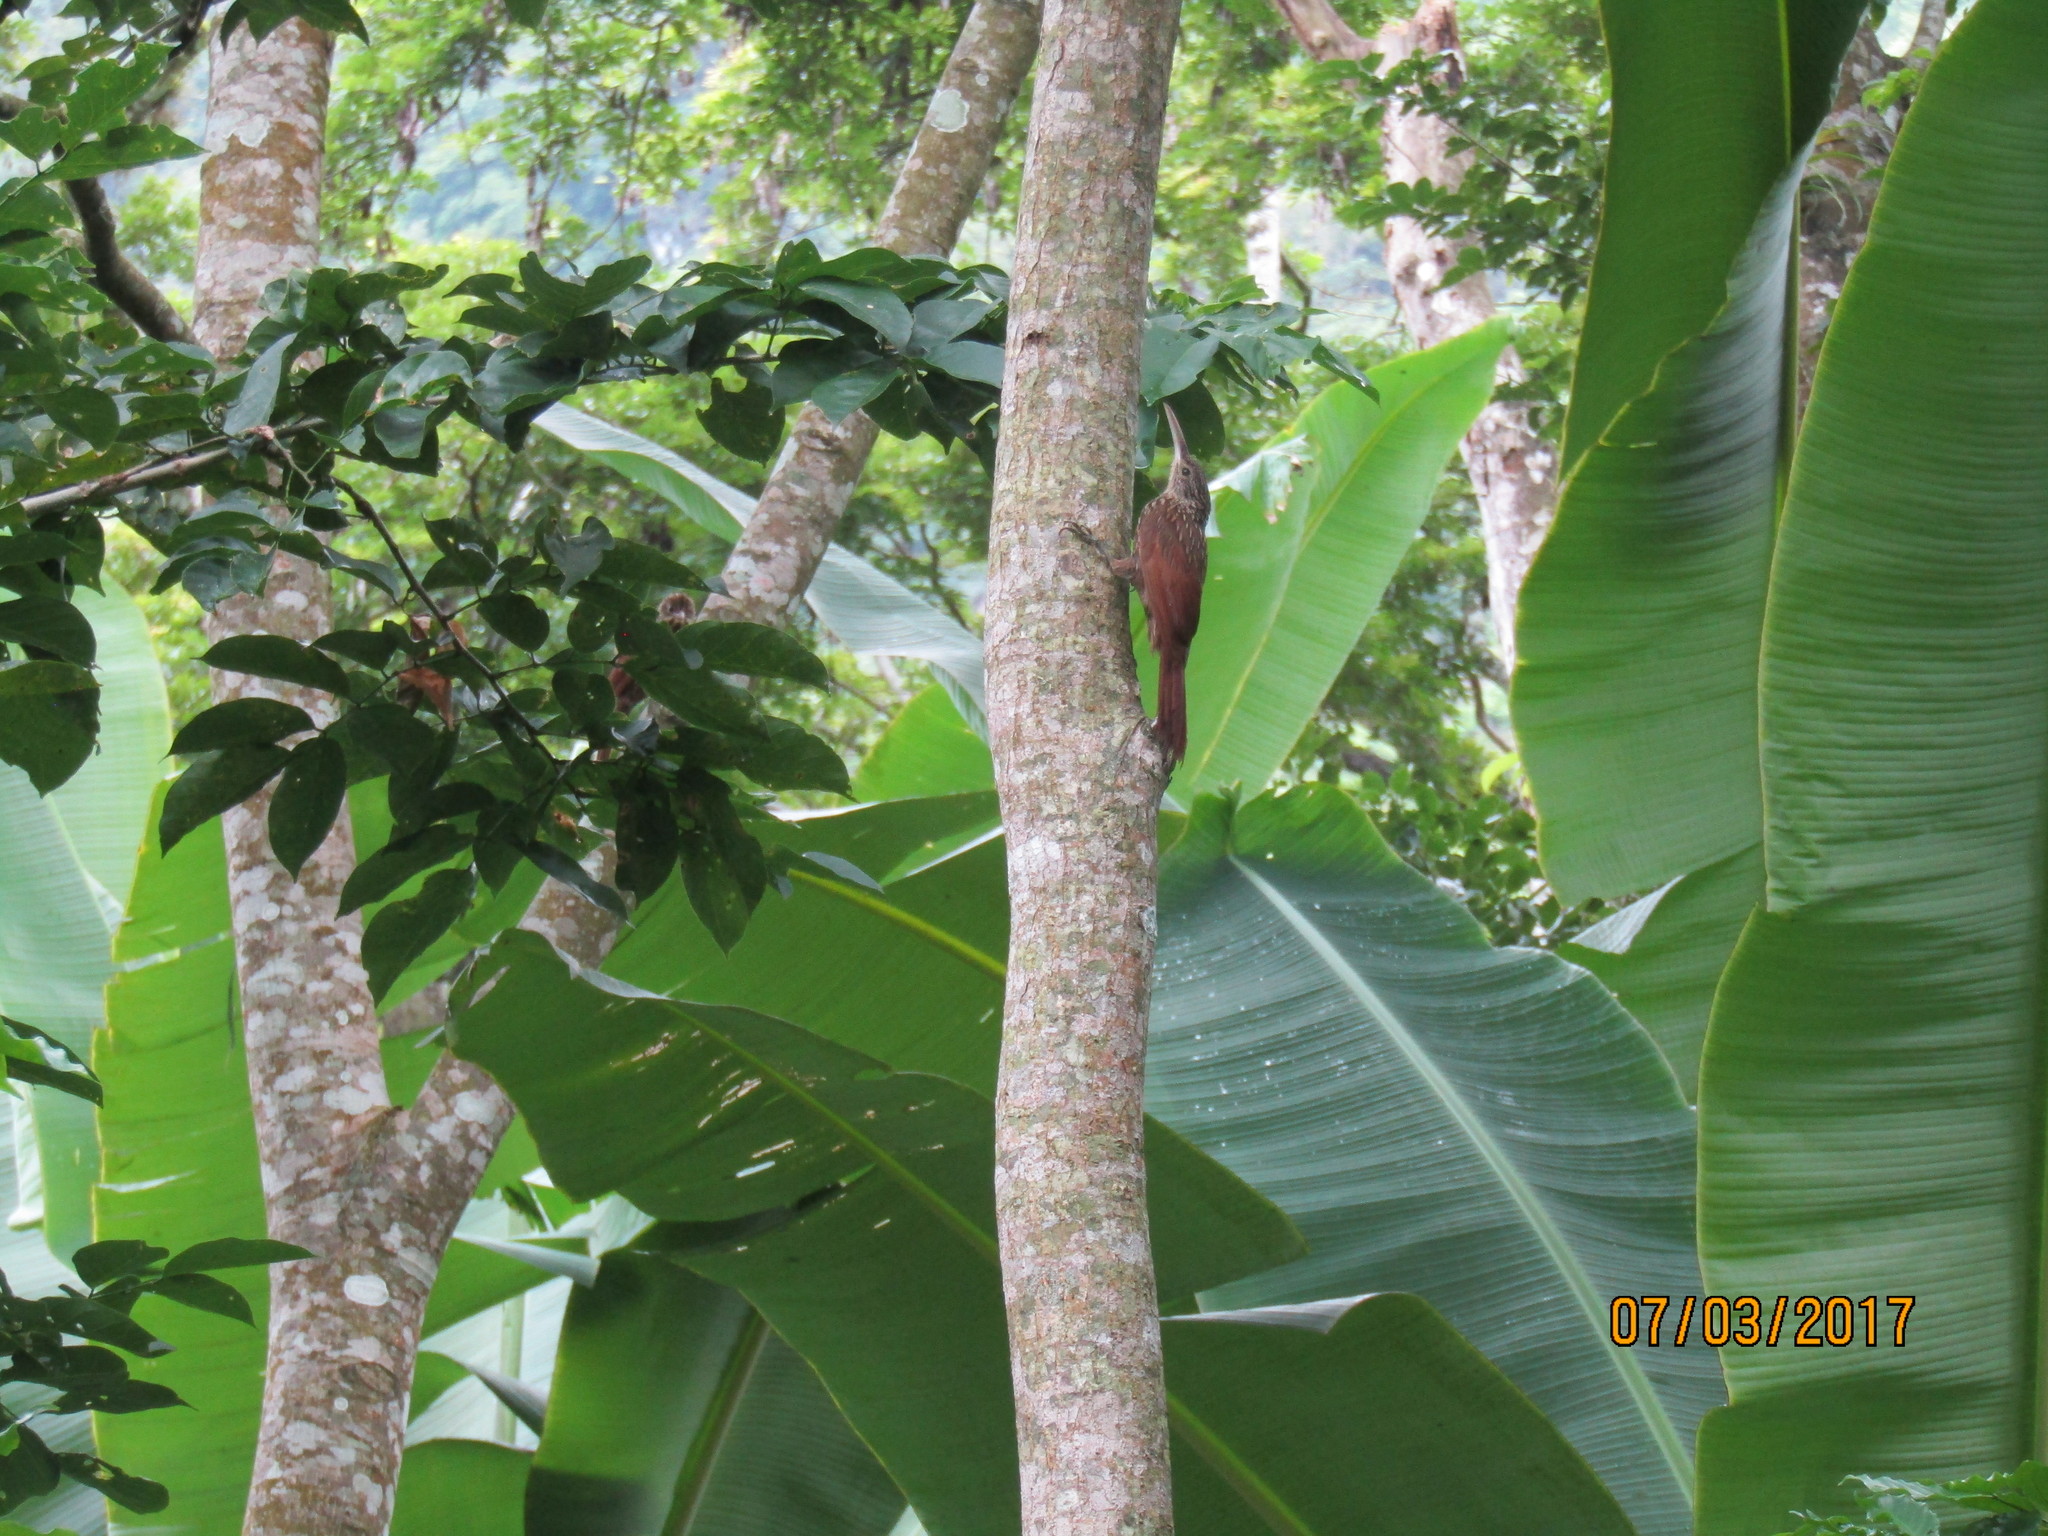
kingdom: Animalia
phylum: Chordata
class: Aves
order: Passeriformes
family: Furnariidae
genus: Xiphorhynchus
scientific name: Xiphorhynchus flavigaster
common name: Ivory-billed woodcreeper
